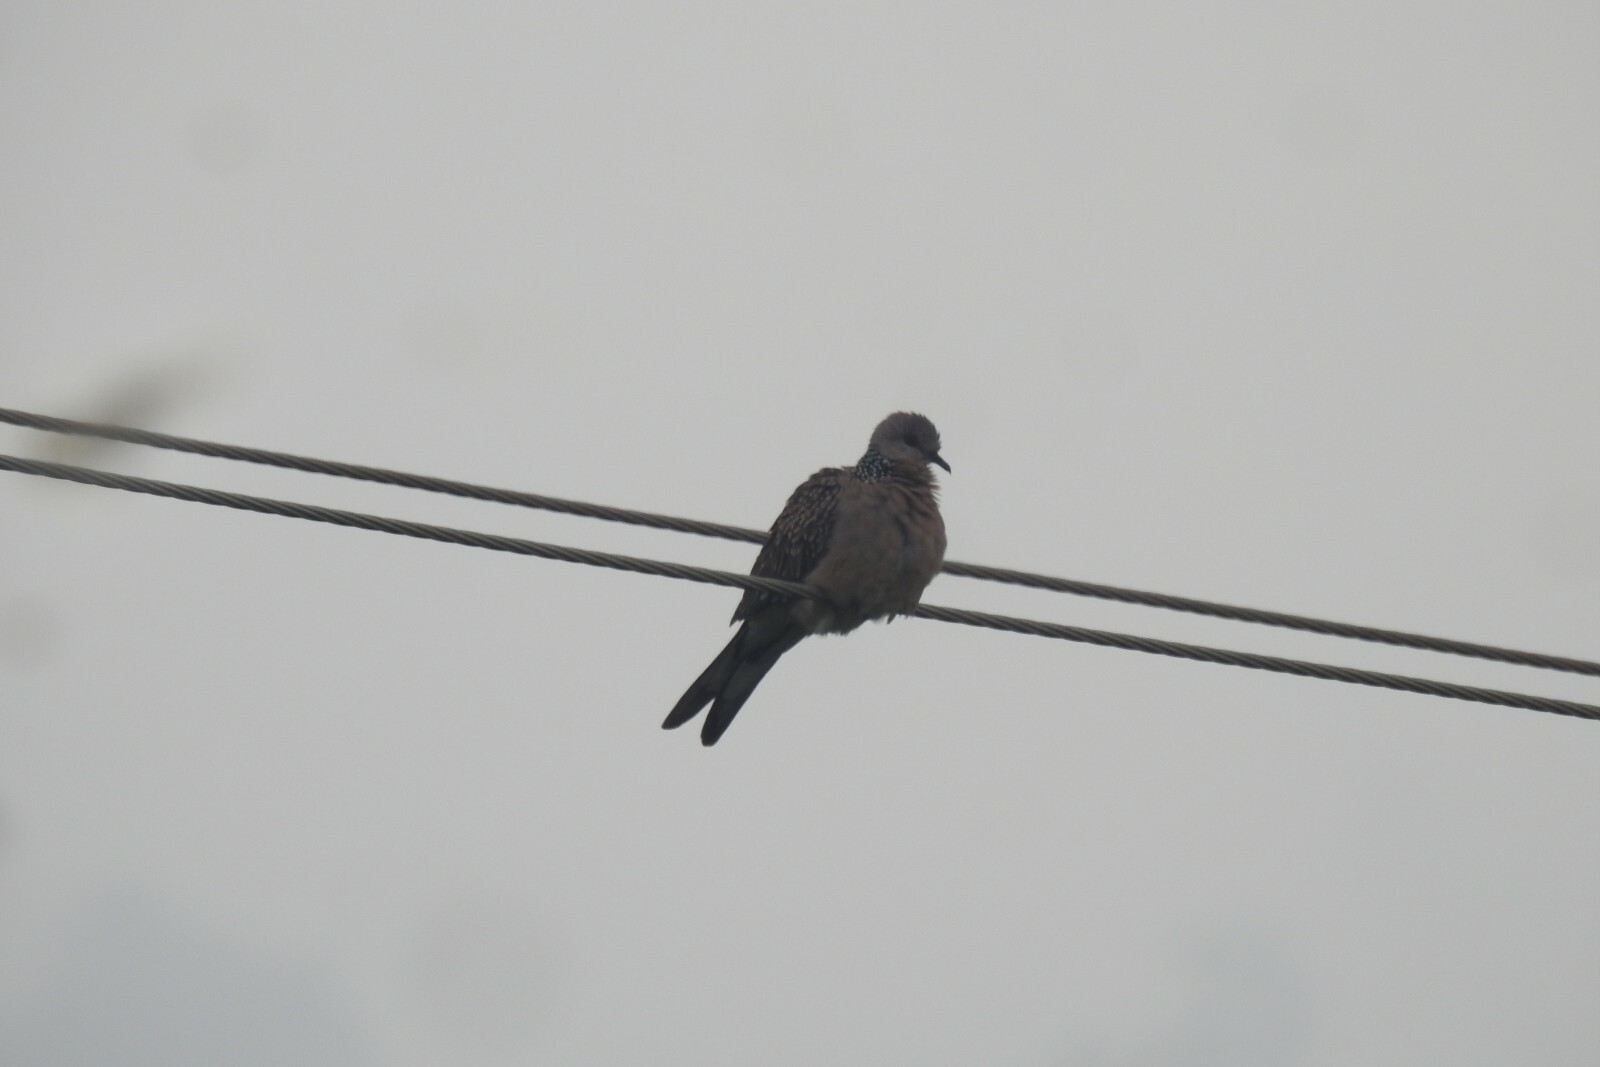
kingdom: Animalia
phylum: Chordata
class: Aves
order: Columbiformes
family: Columbidae
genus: Spilopelia
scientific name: Spilopelia chinensis
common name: Spotted dove
